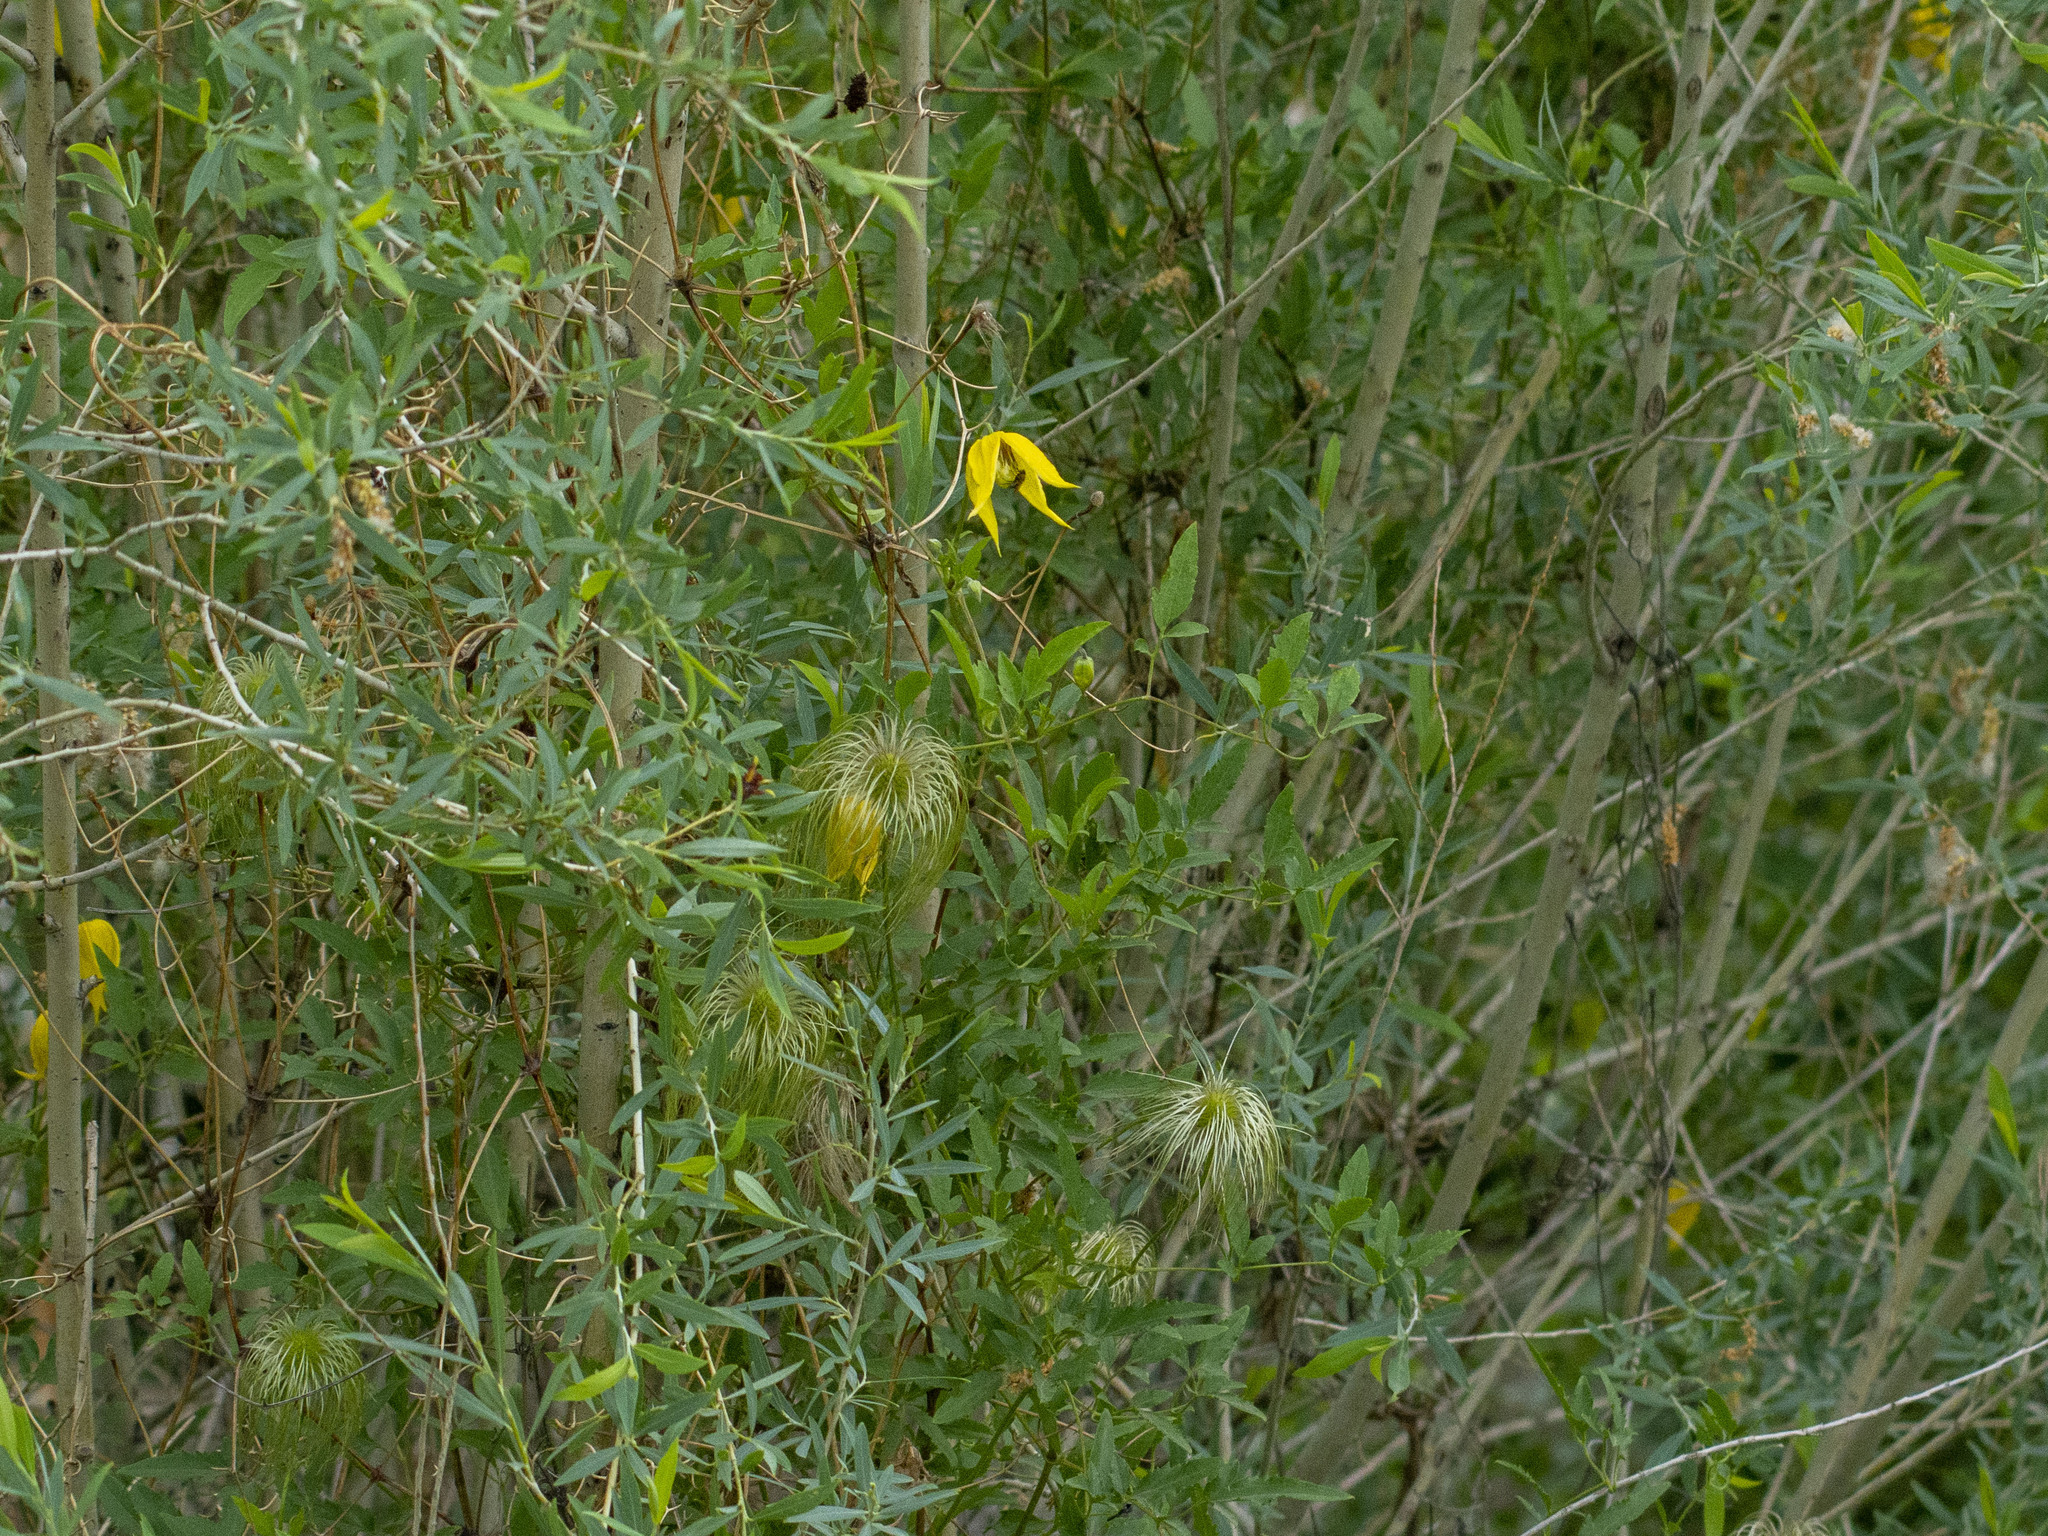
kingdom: Plantae
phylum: Tracheophyta
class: Magnoliopsida
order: Ranunculales
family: Ranunculaceae
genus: Clematis
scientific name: Clematis tangutica
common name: Orange-peel clematis
